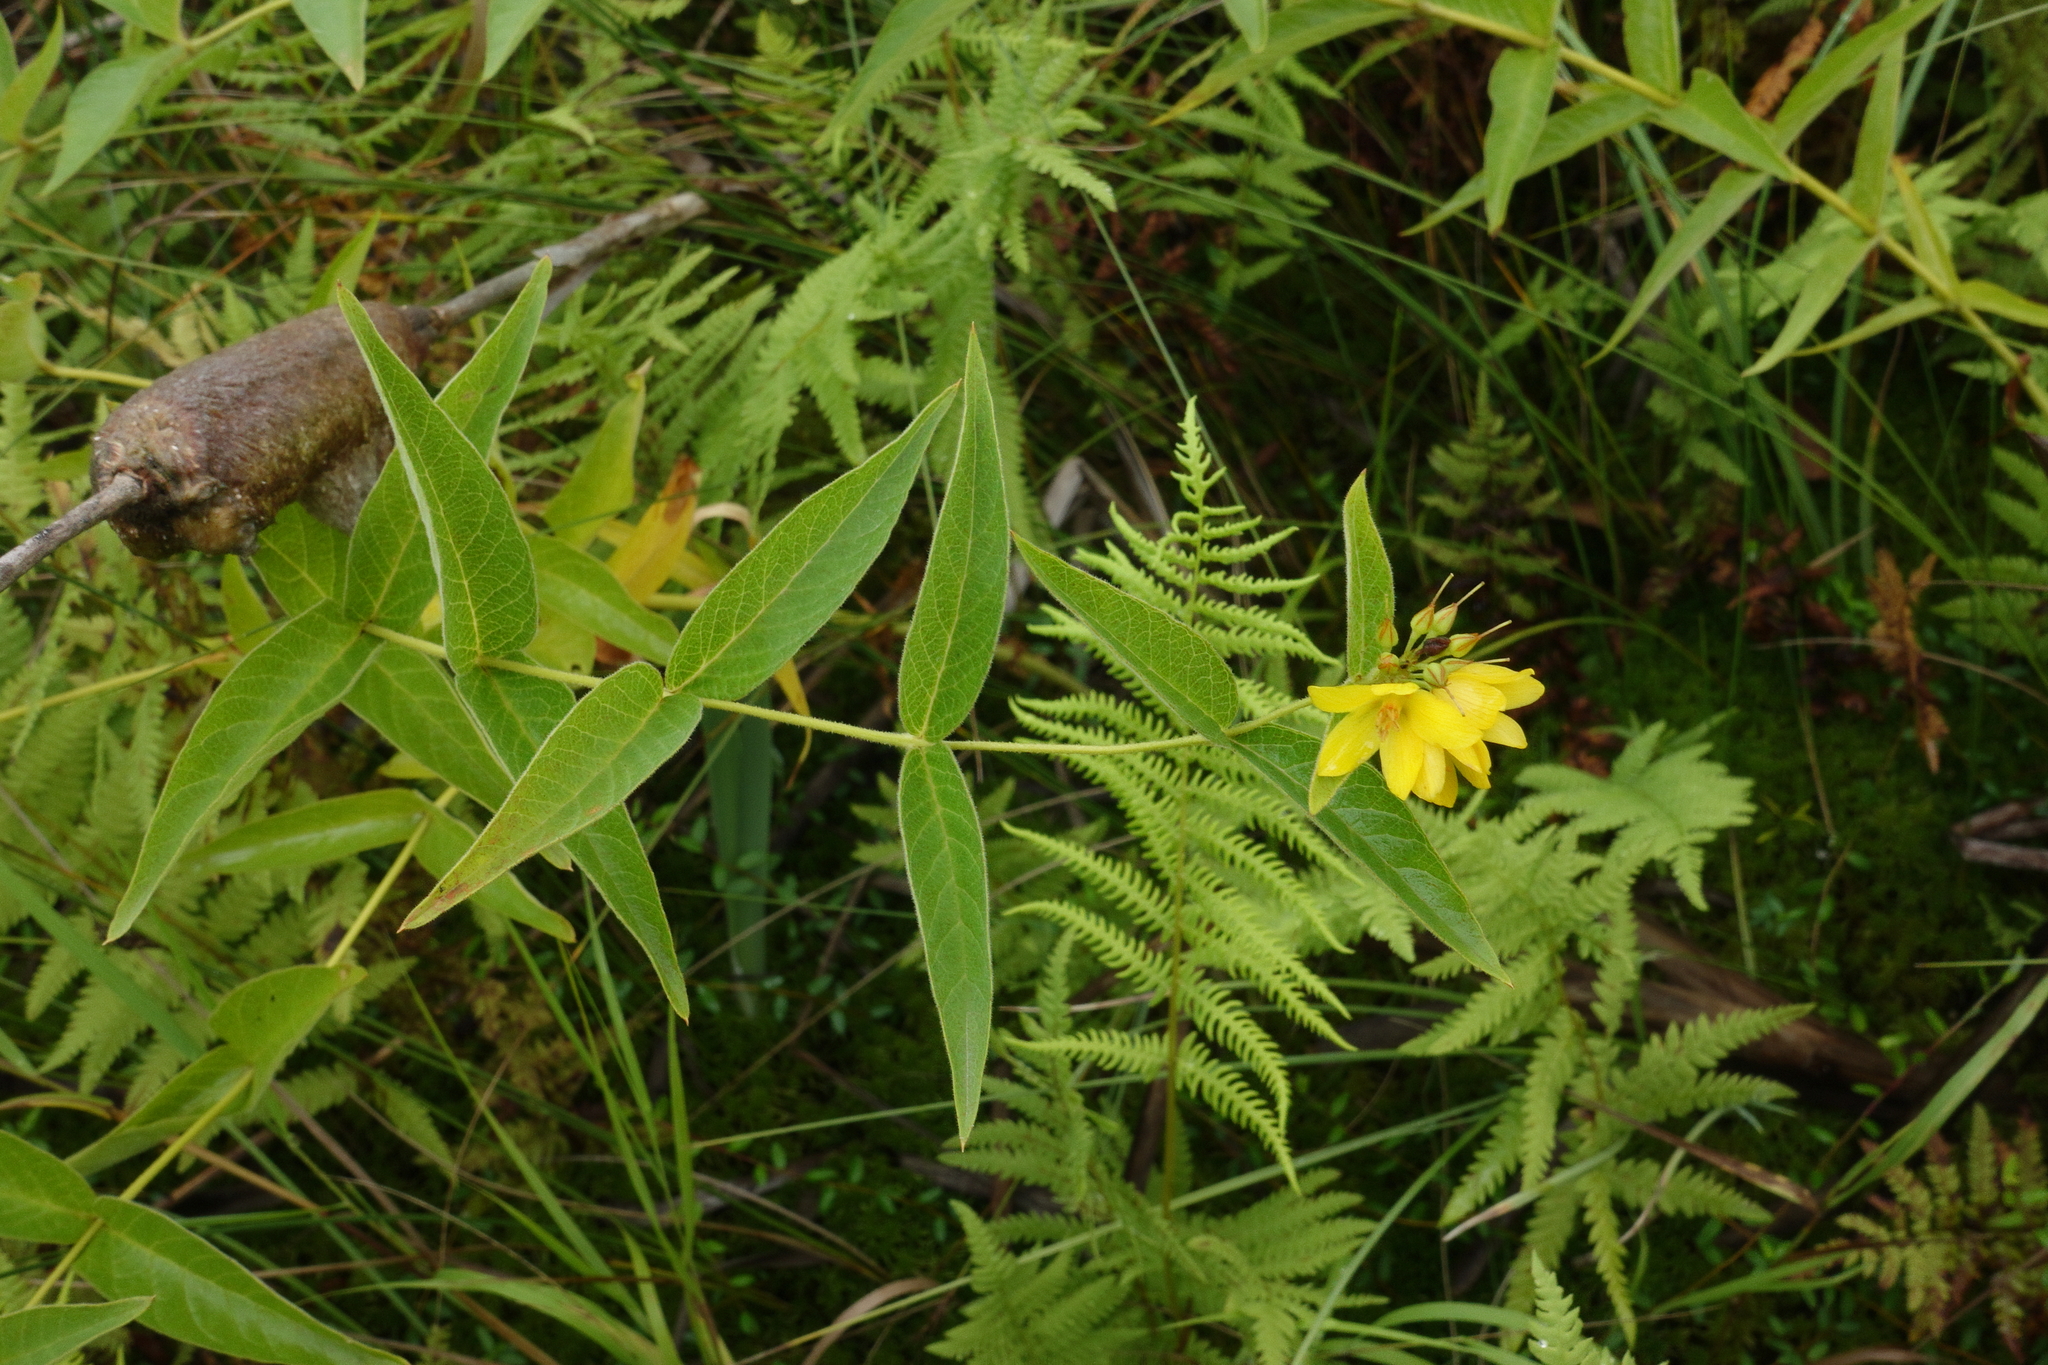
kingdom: Plantae
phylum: Tracheophyta
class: Magnoliopsida
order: Ericales
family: Primulaceae
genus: Lysimachia
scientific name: Lysimachia vulgaris
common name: Yellow loosestrife
